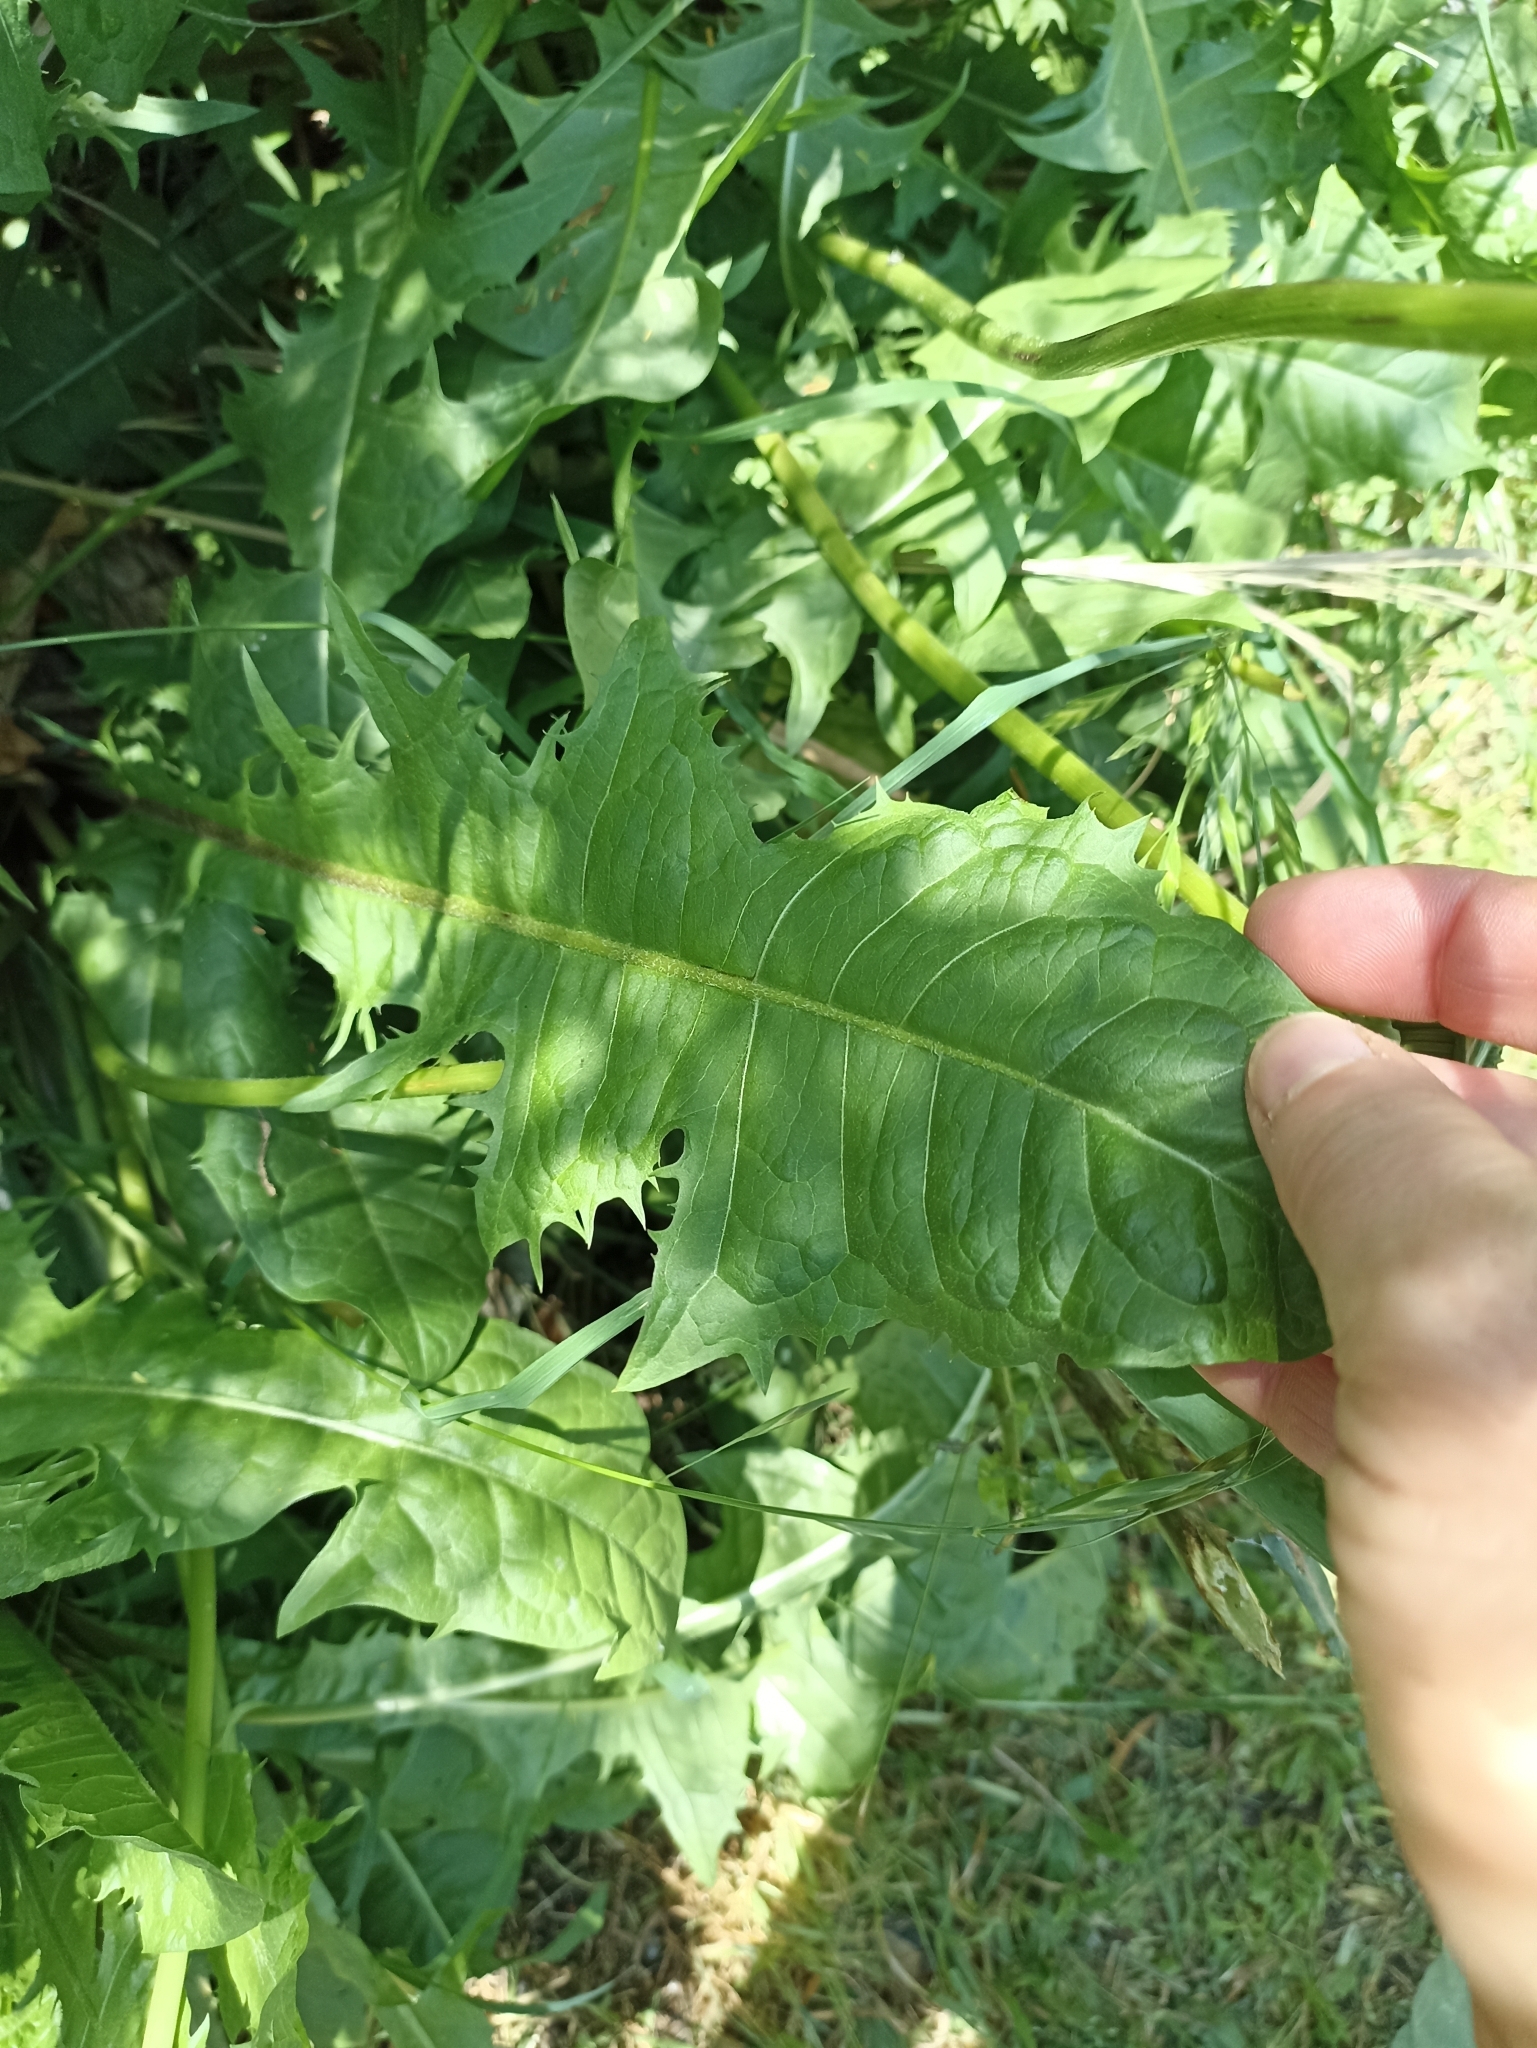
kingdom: Plantae
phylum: Tracheophyta
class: Magnoliopsida
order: Asterales
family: Asteraceae
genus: Taraxacum
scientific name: Taraxacum officinale
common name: Common dandelion
